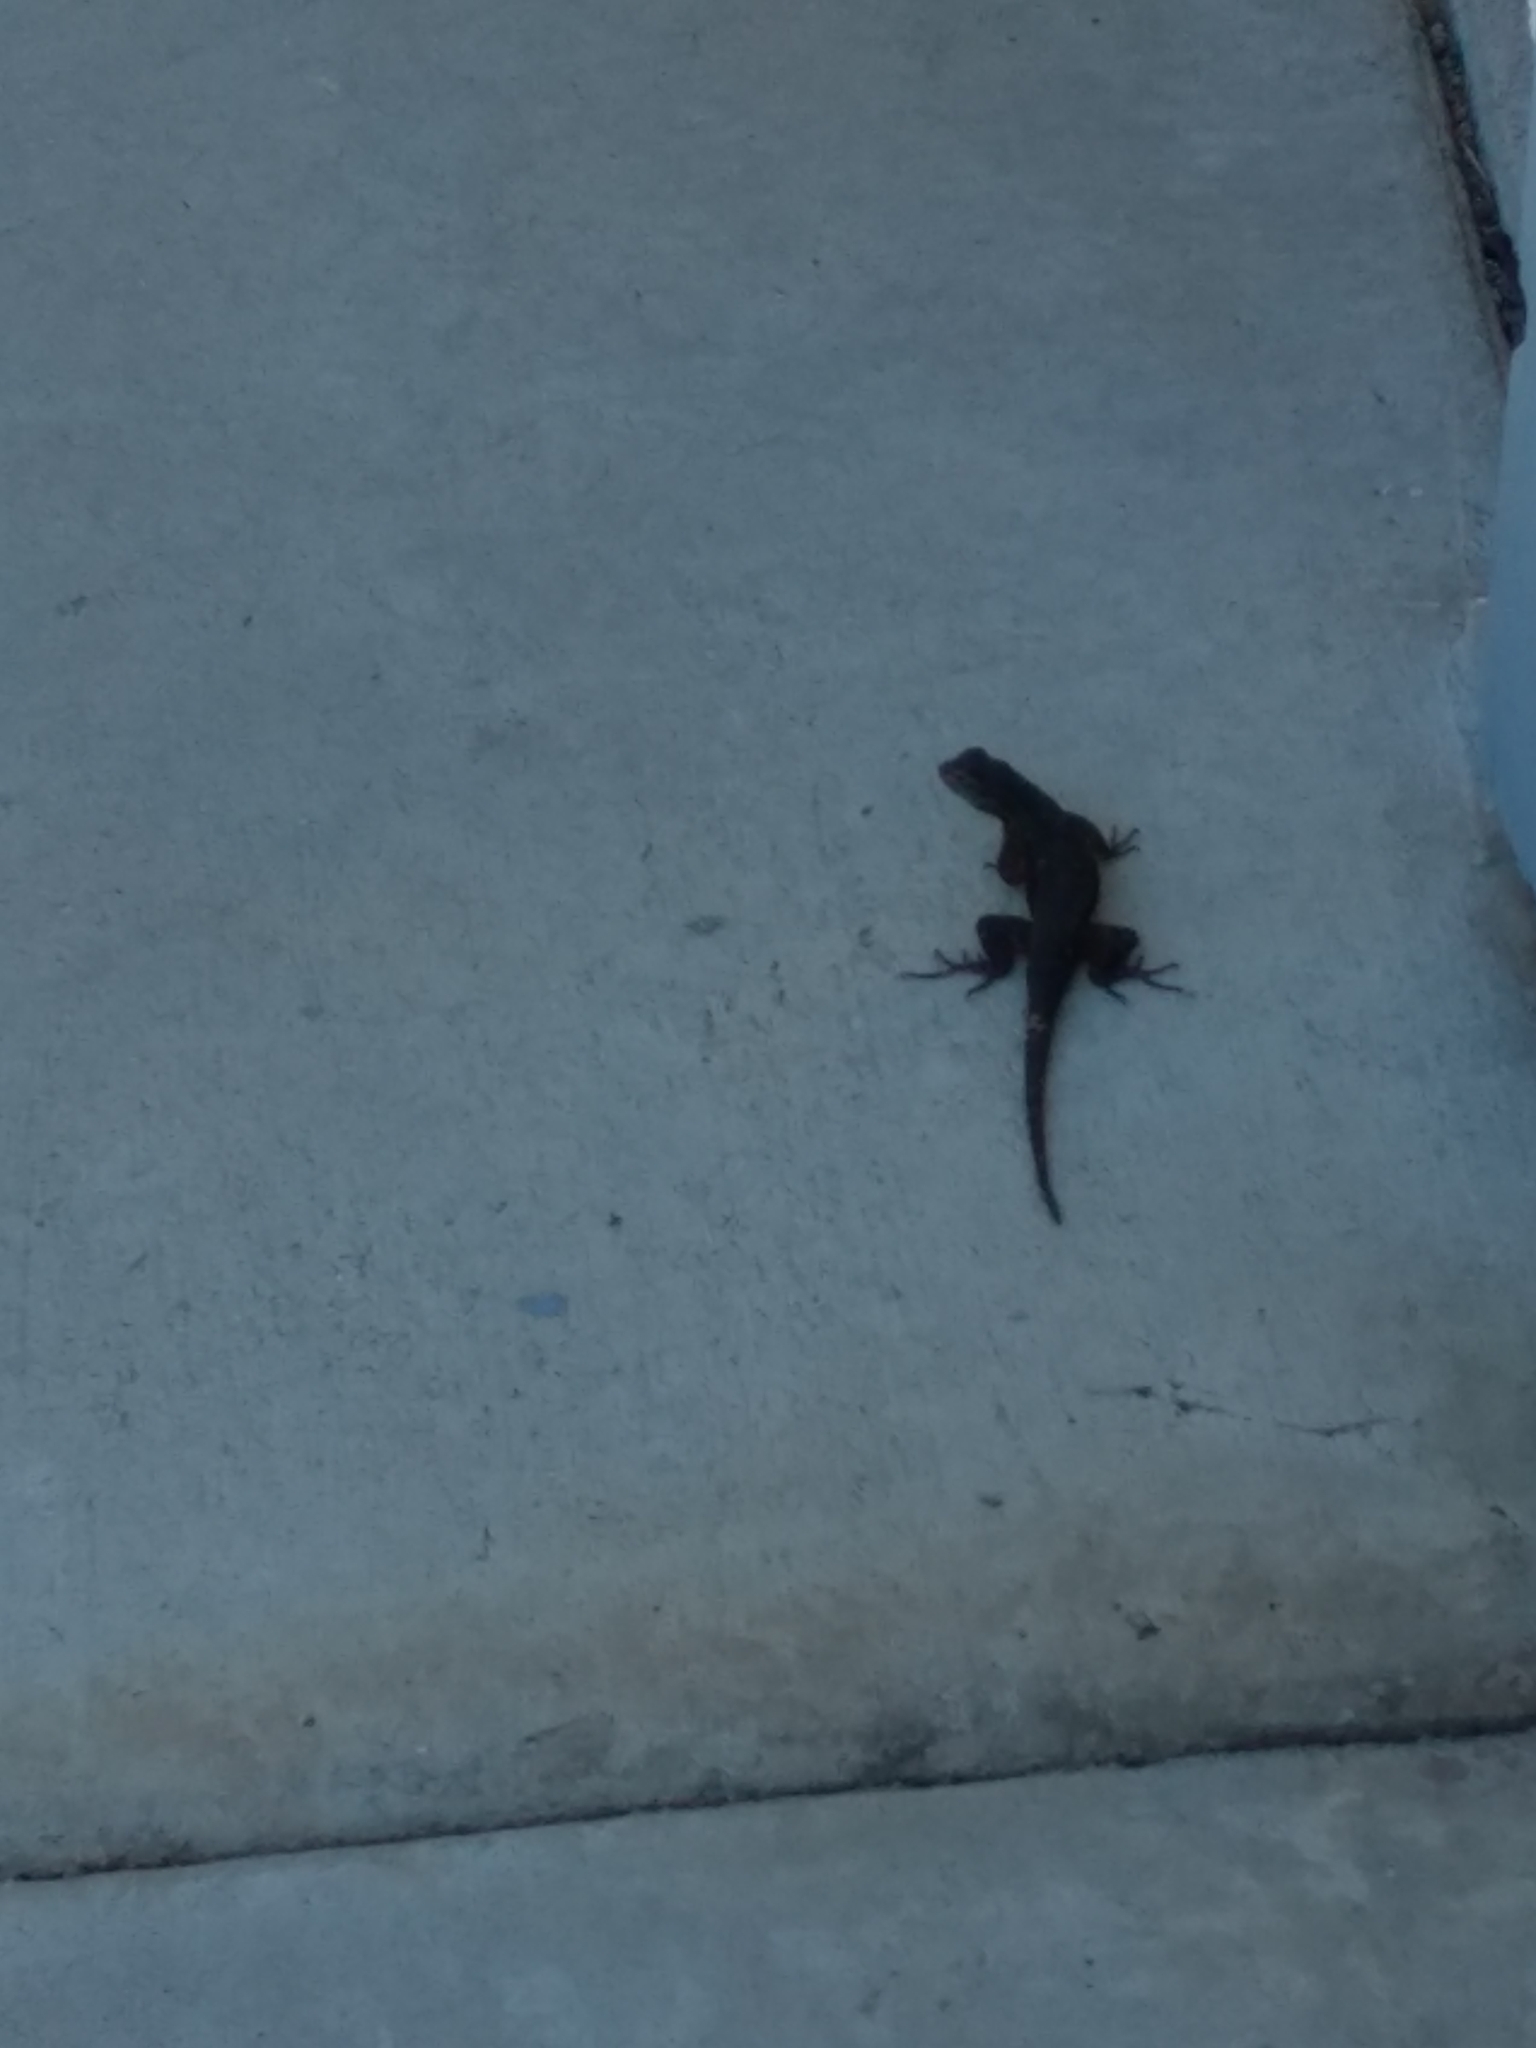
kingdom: Animalia
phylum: Chordata
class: Squamata
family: Phrynosomatidae
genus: Sceloporus
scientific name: Sceloporus occidentalis
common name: Western fence lizard
